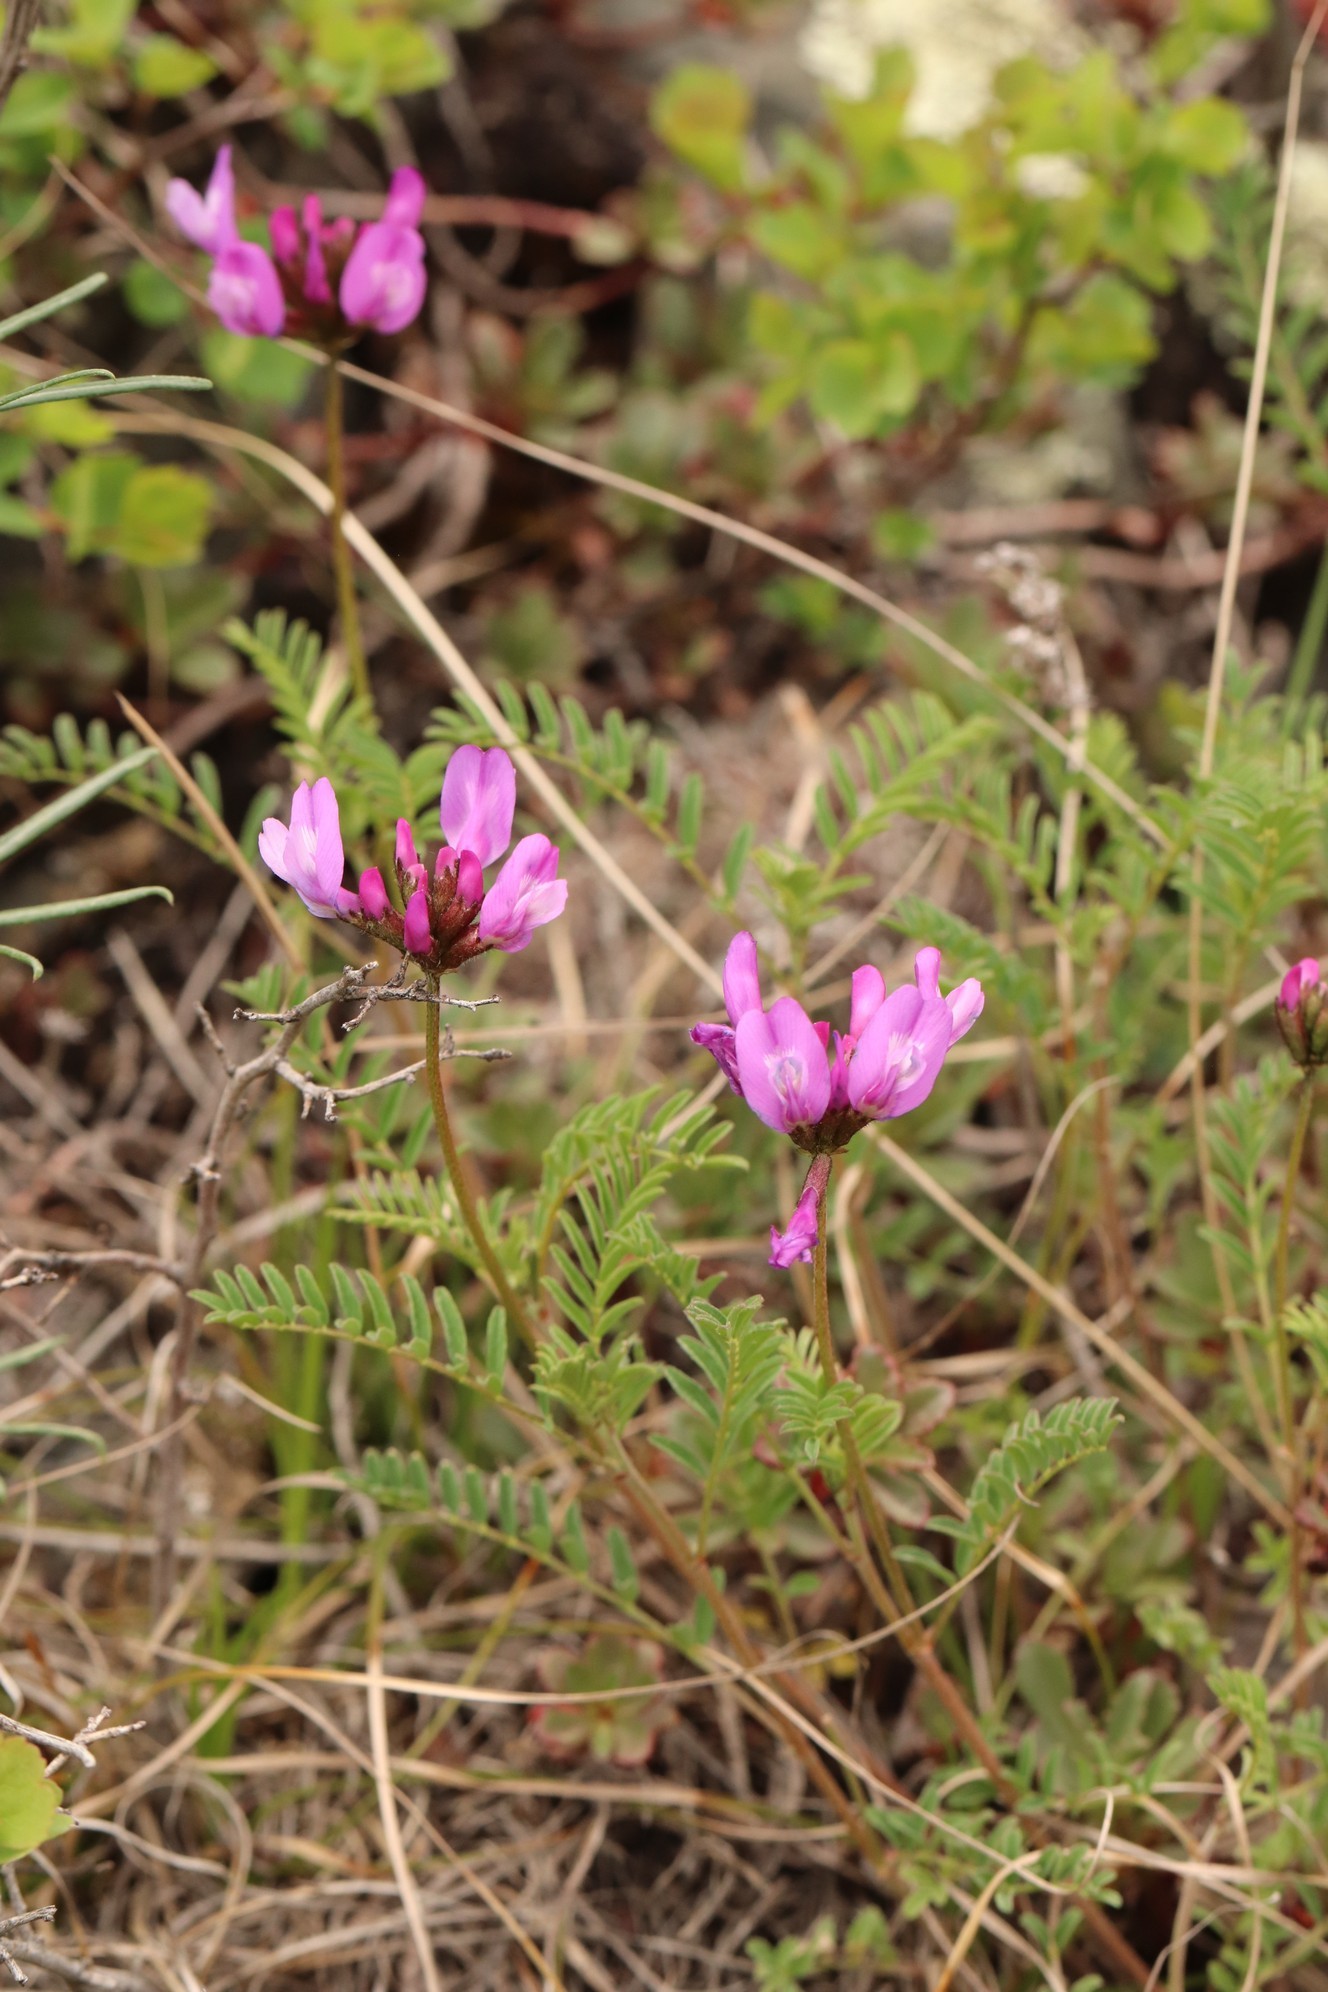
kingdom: Plantae
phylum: Tracheophyta
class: Magnoliopsida
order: Fabales
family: Fabaceae
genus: Astragalus
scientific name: Astragalus ceratoides
